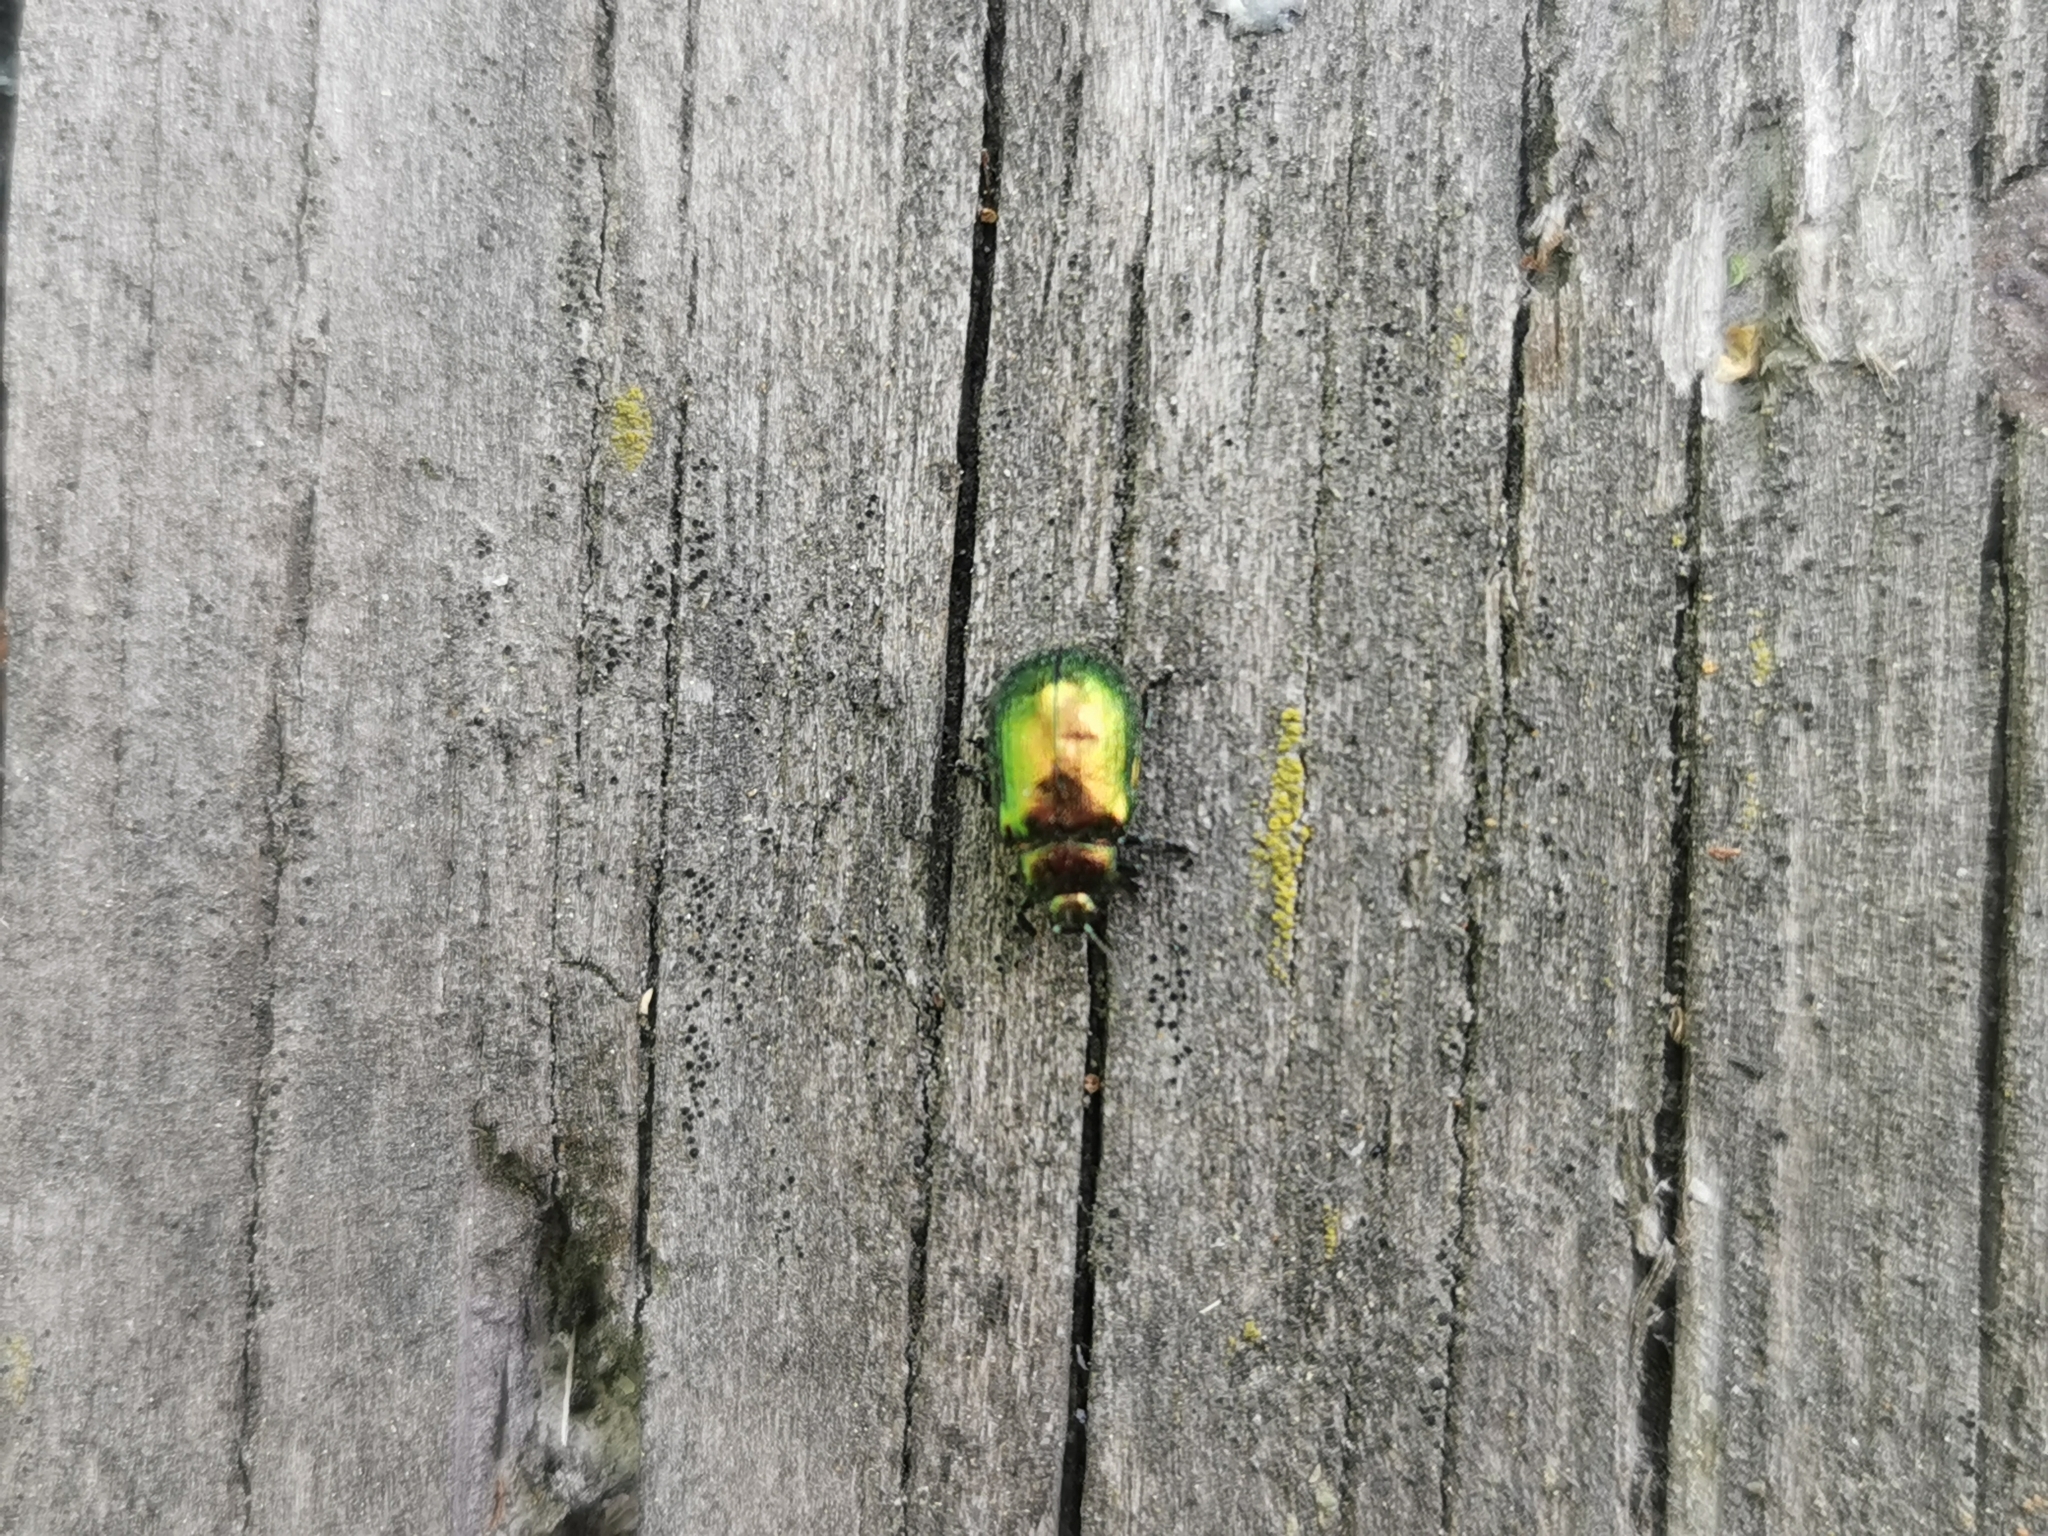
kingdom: Animalia
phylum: Arthropoda
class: Insecta
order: Coleoptera
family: Chrysomelidae
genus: Plagiosterna
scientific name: Plagiosterna aenea
